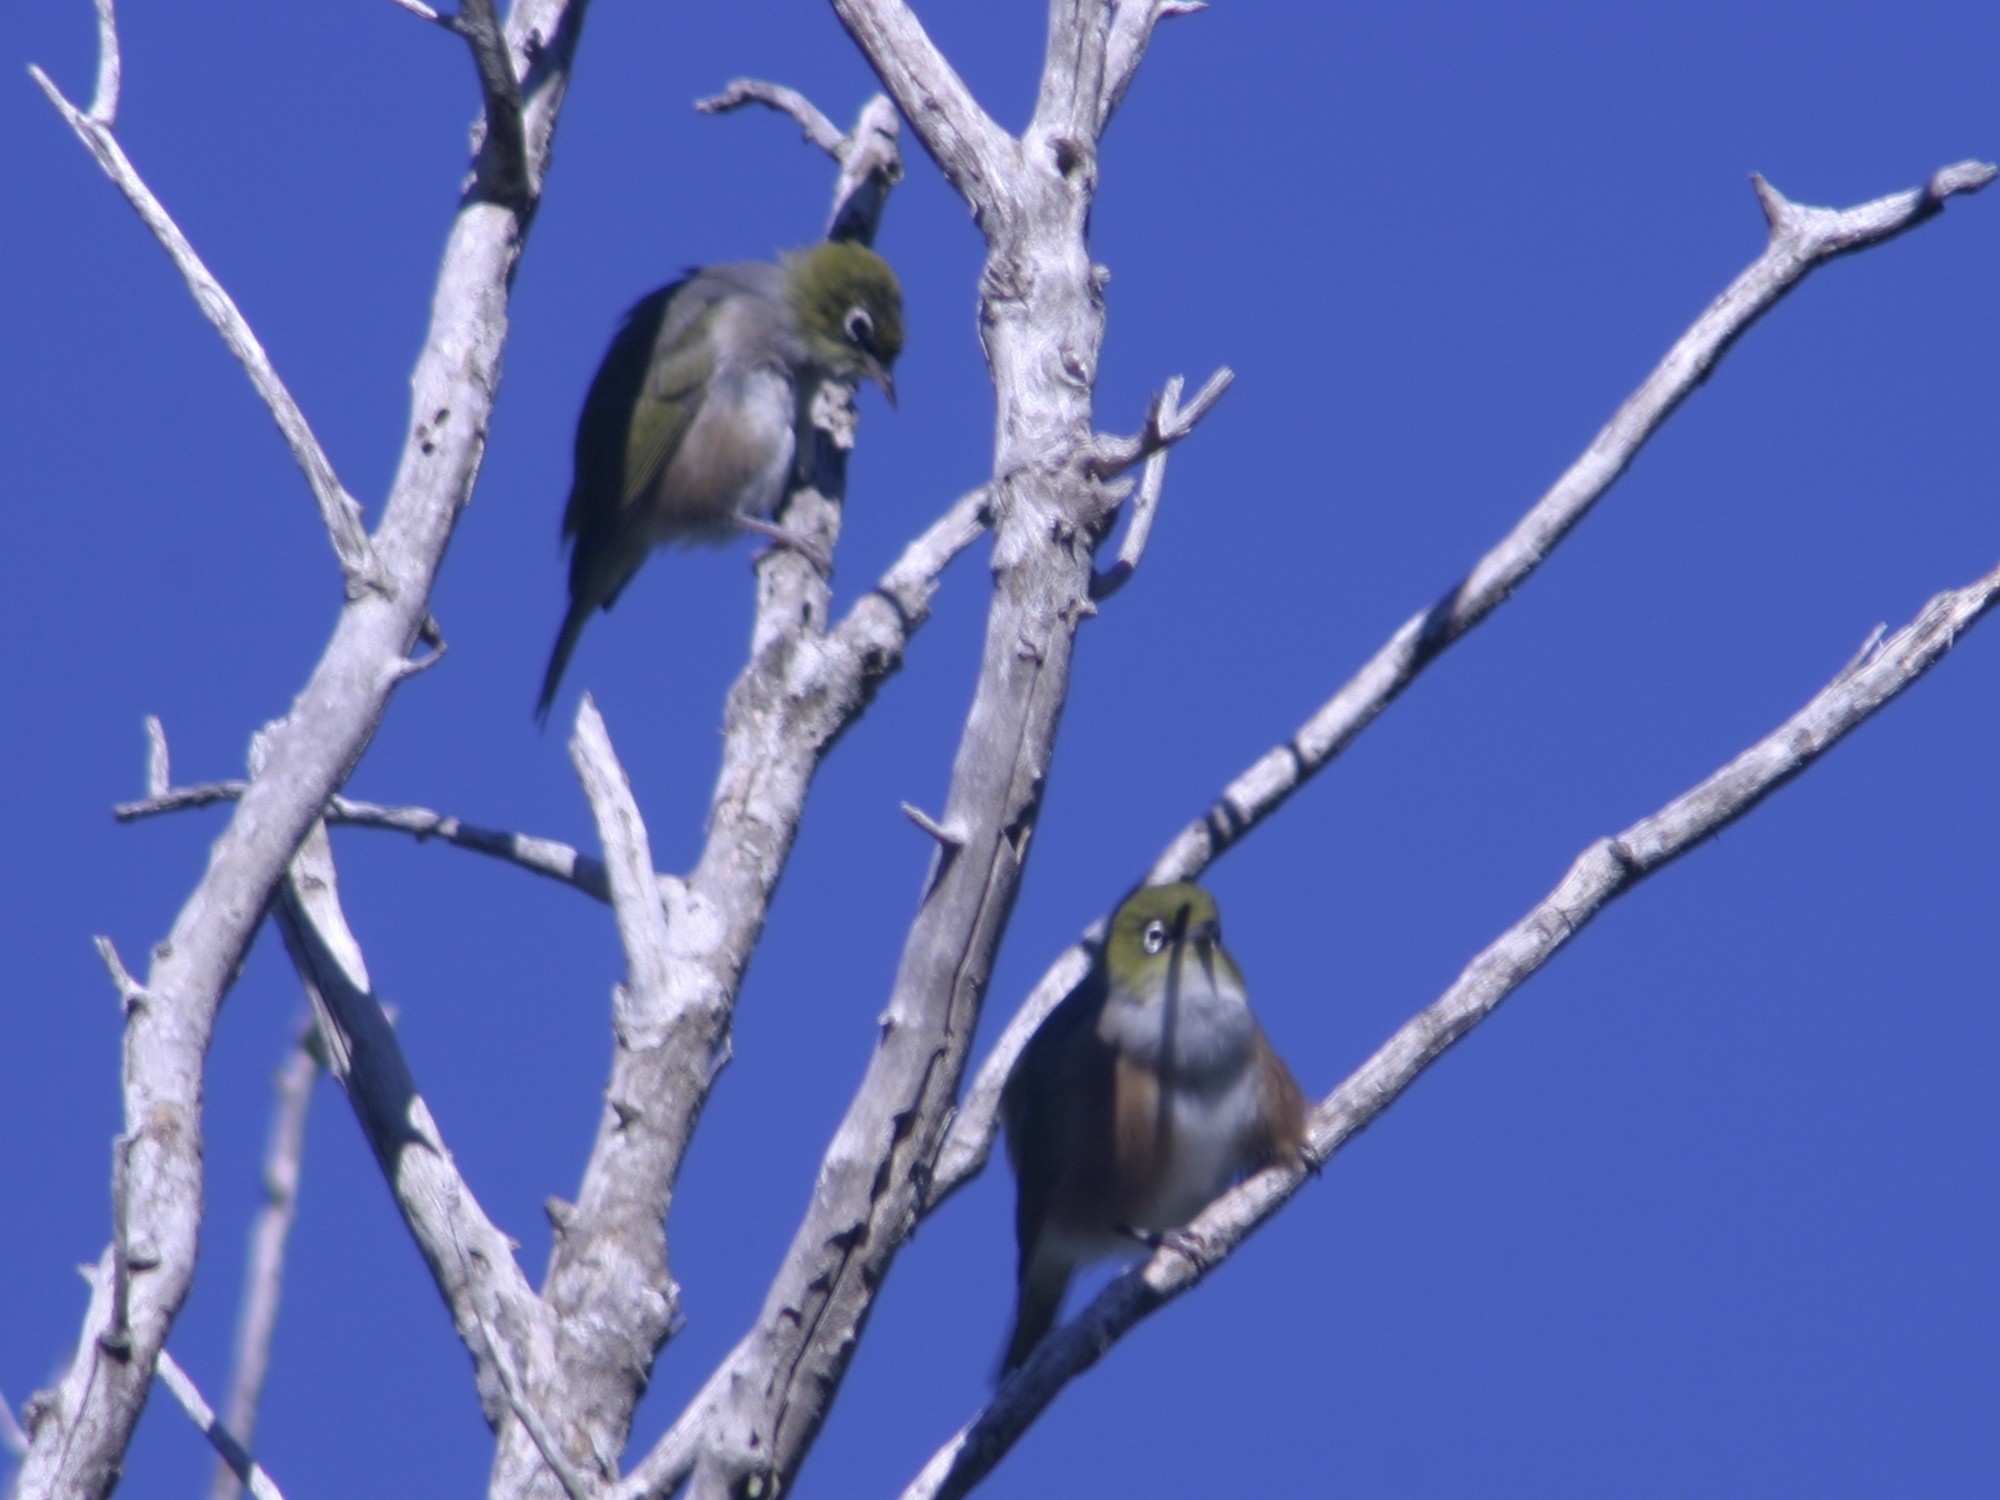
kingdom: Animalia
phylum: Chordata
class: Aves
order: Passeriformes
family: Zosteropidae
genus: Zosterops
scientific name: Zosterops lateralis
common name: Silvereye
